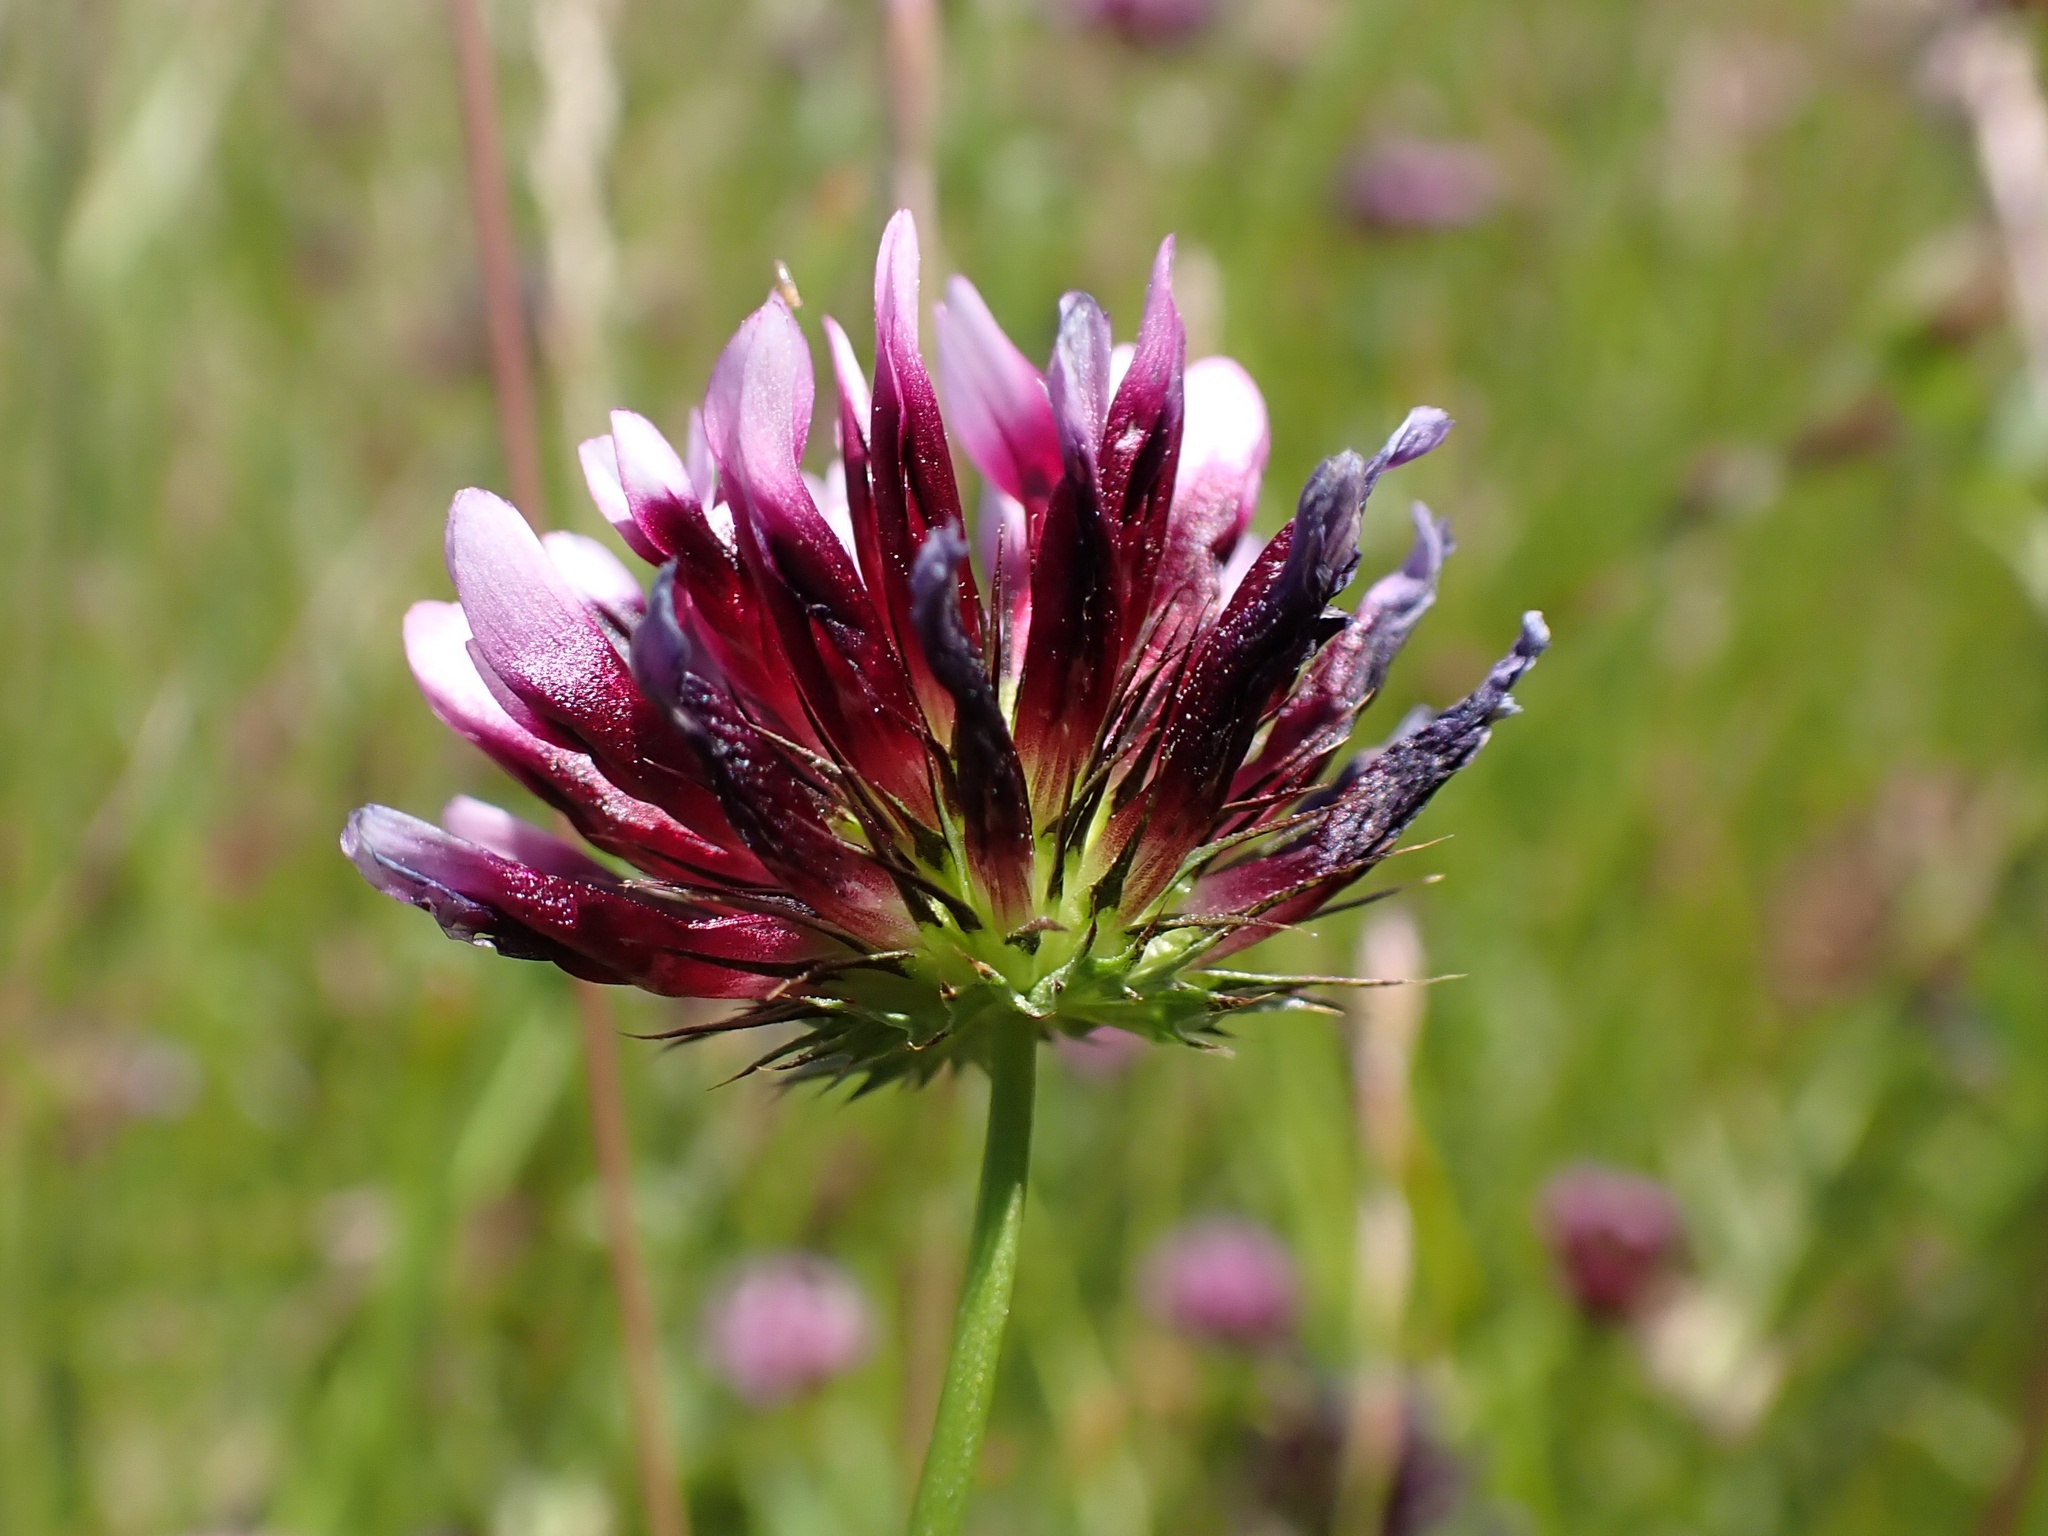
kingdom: Plantae
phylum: Tracheophyta
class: Magnoliopsida
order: Fabales
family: Fabaceae
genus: Trifolium
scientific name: Trifolium variegatum
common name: Whitetip clover
